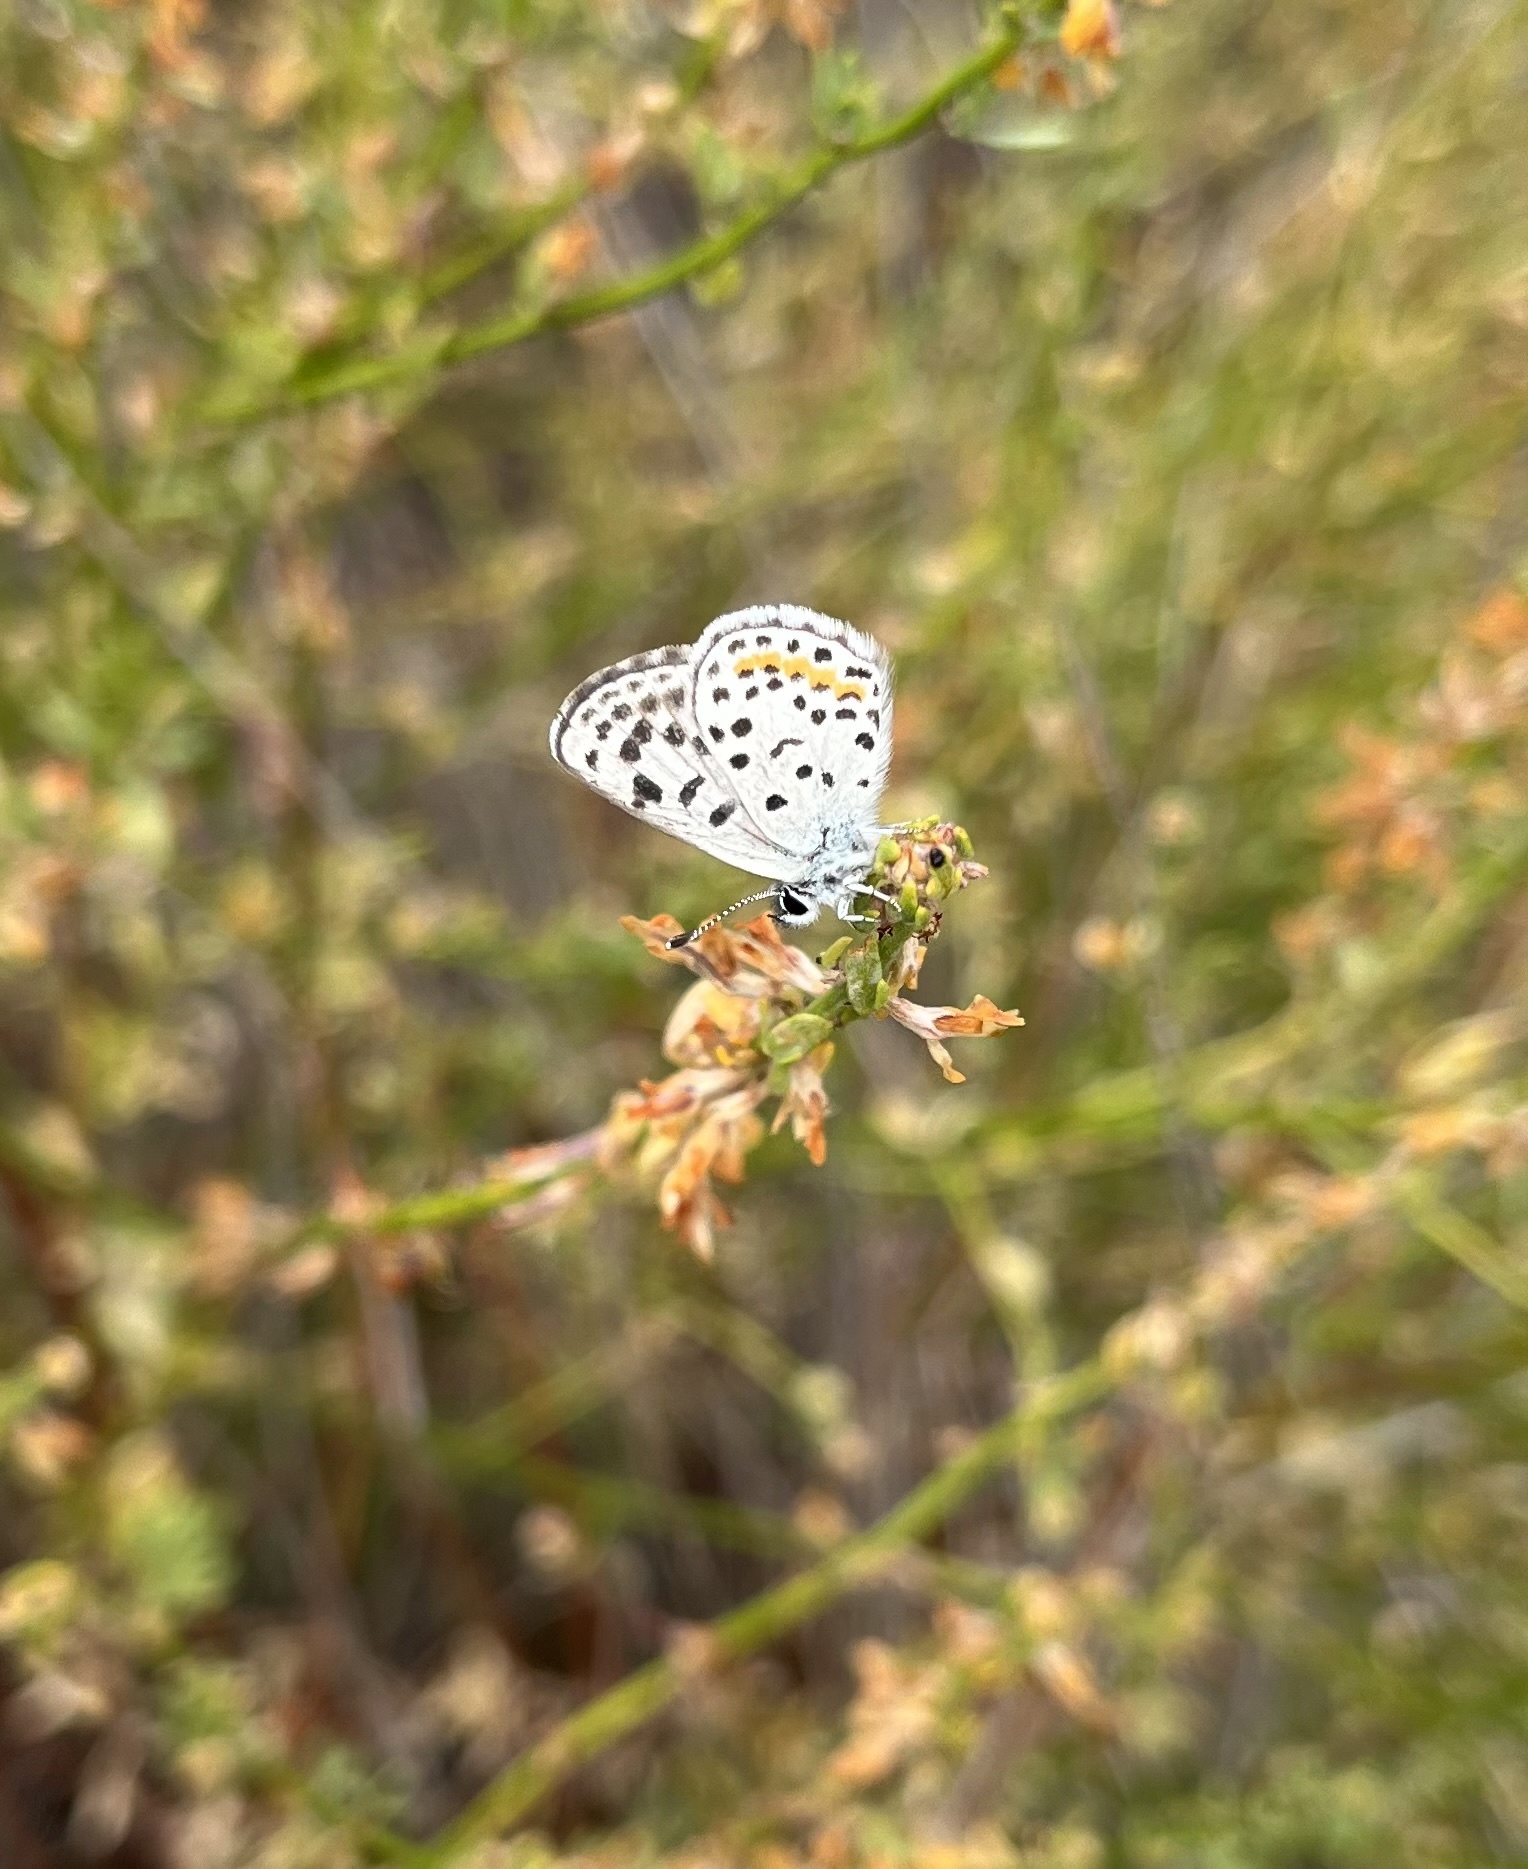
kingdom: Animalia
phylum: Arthropoda
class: Insecta
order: Lepidoptera
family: Lycaenidae
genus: Philotes
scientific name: Philotes bernardino
